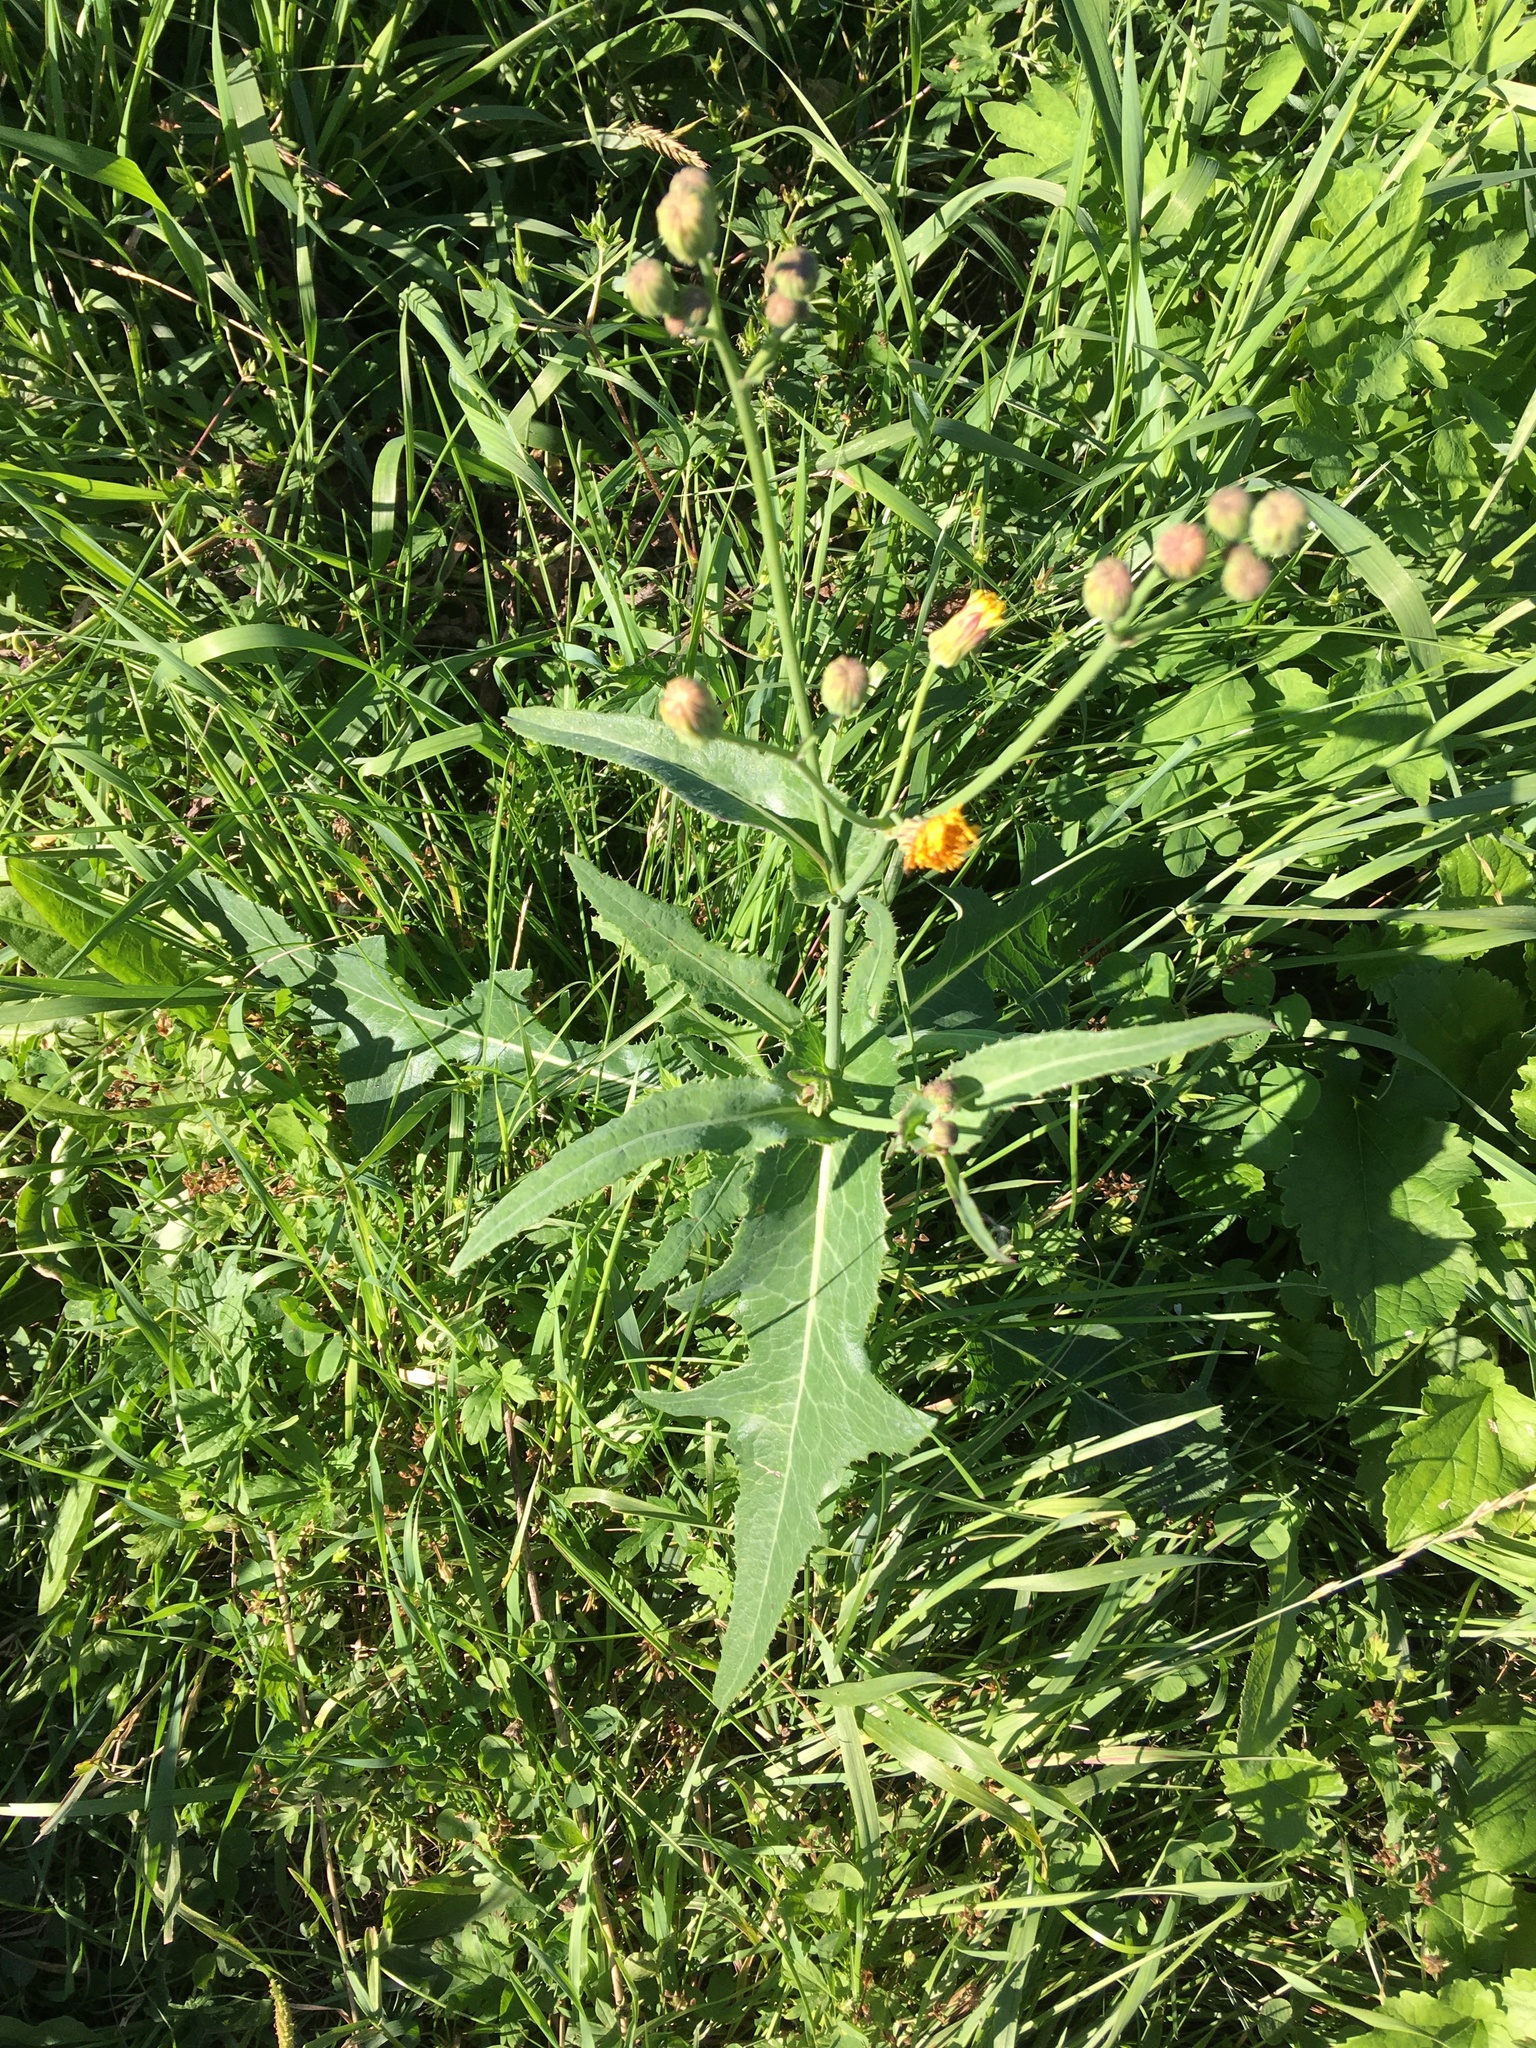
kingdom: Plantae
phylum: Tracheophyta
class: Magnoliopsida
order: Asterales
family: Asteraceae
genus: Sonchus
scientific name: Sonchus arvensis
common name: Perennial sow-thistle
